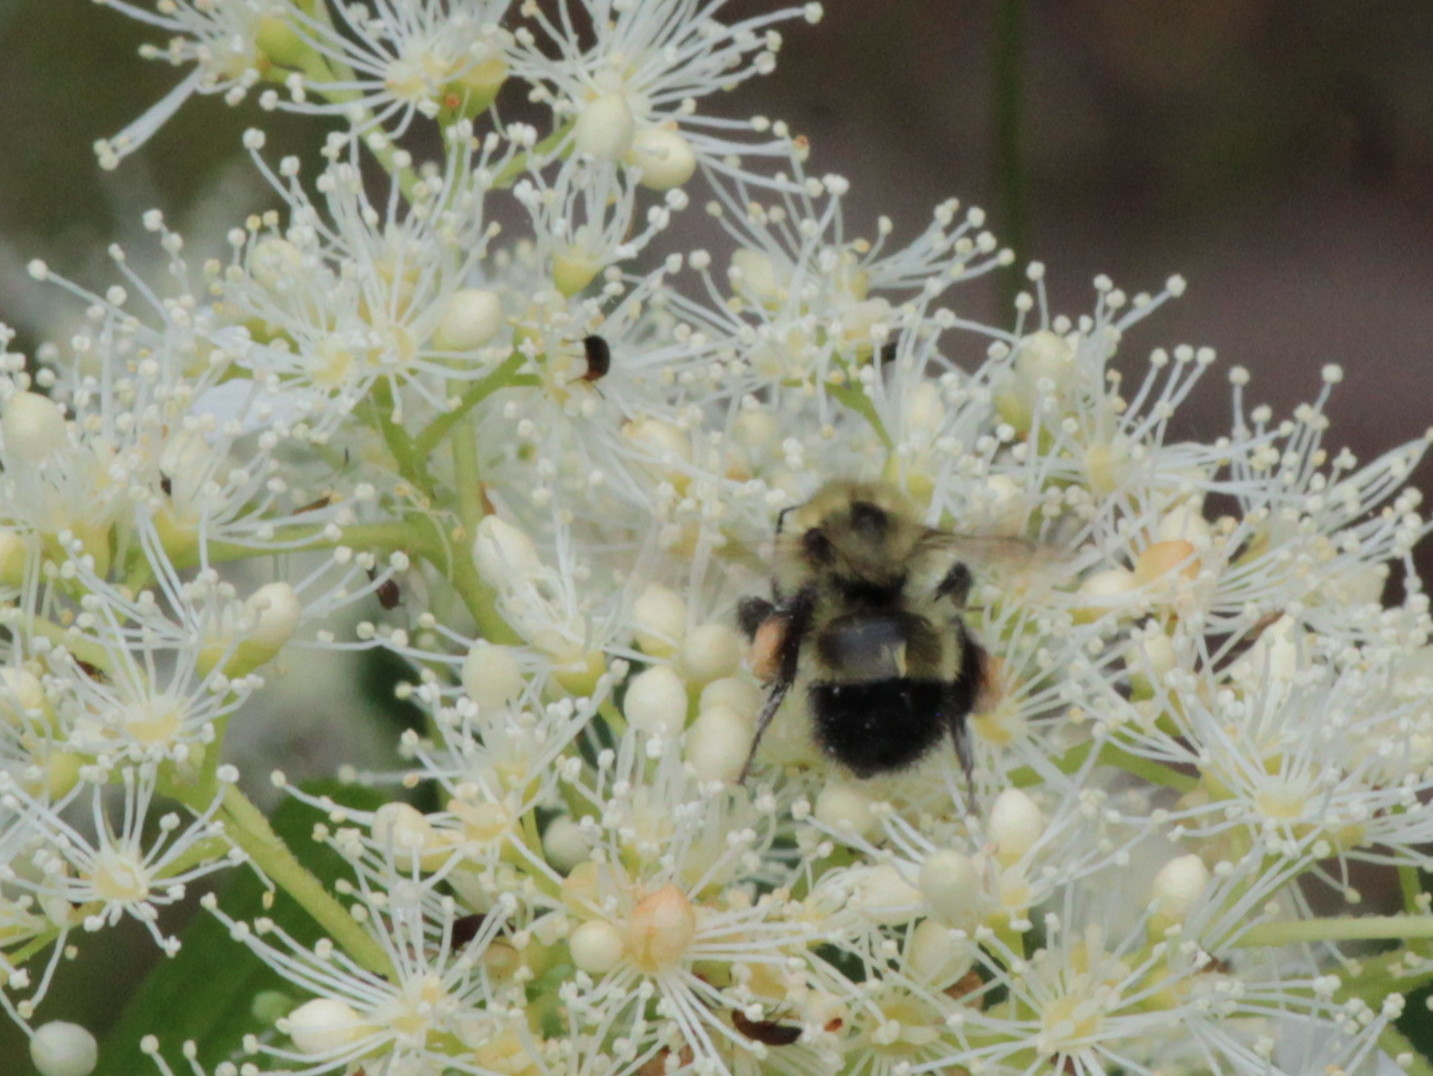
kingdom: Animalia
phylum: Arthropoda
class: Insecta
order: Hymenoptera
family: Apidae
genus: Bombus
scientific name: Bombus vagans
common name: Half-black bumble bee
